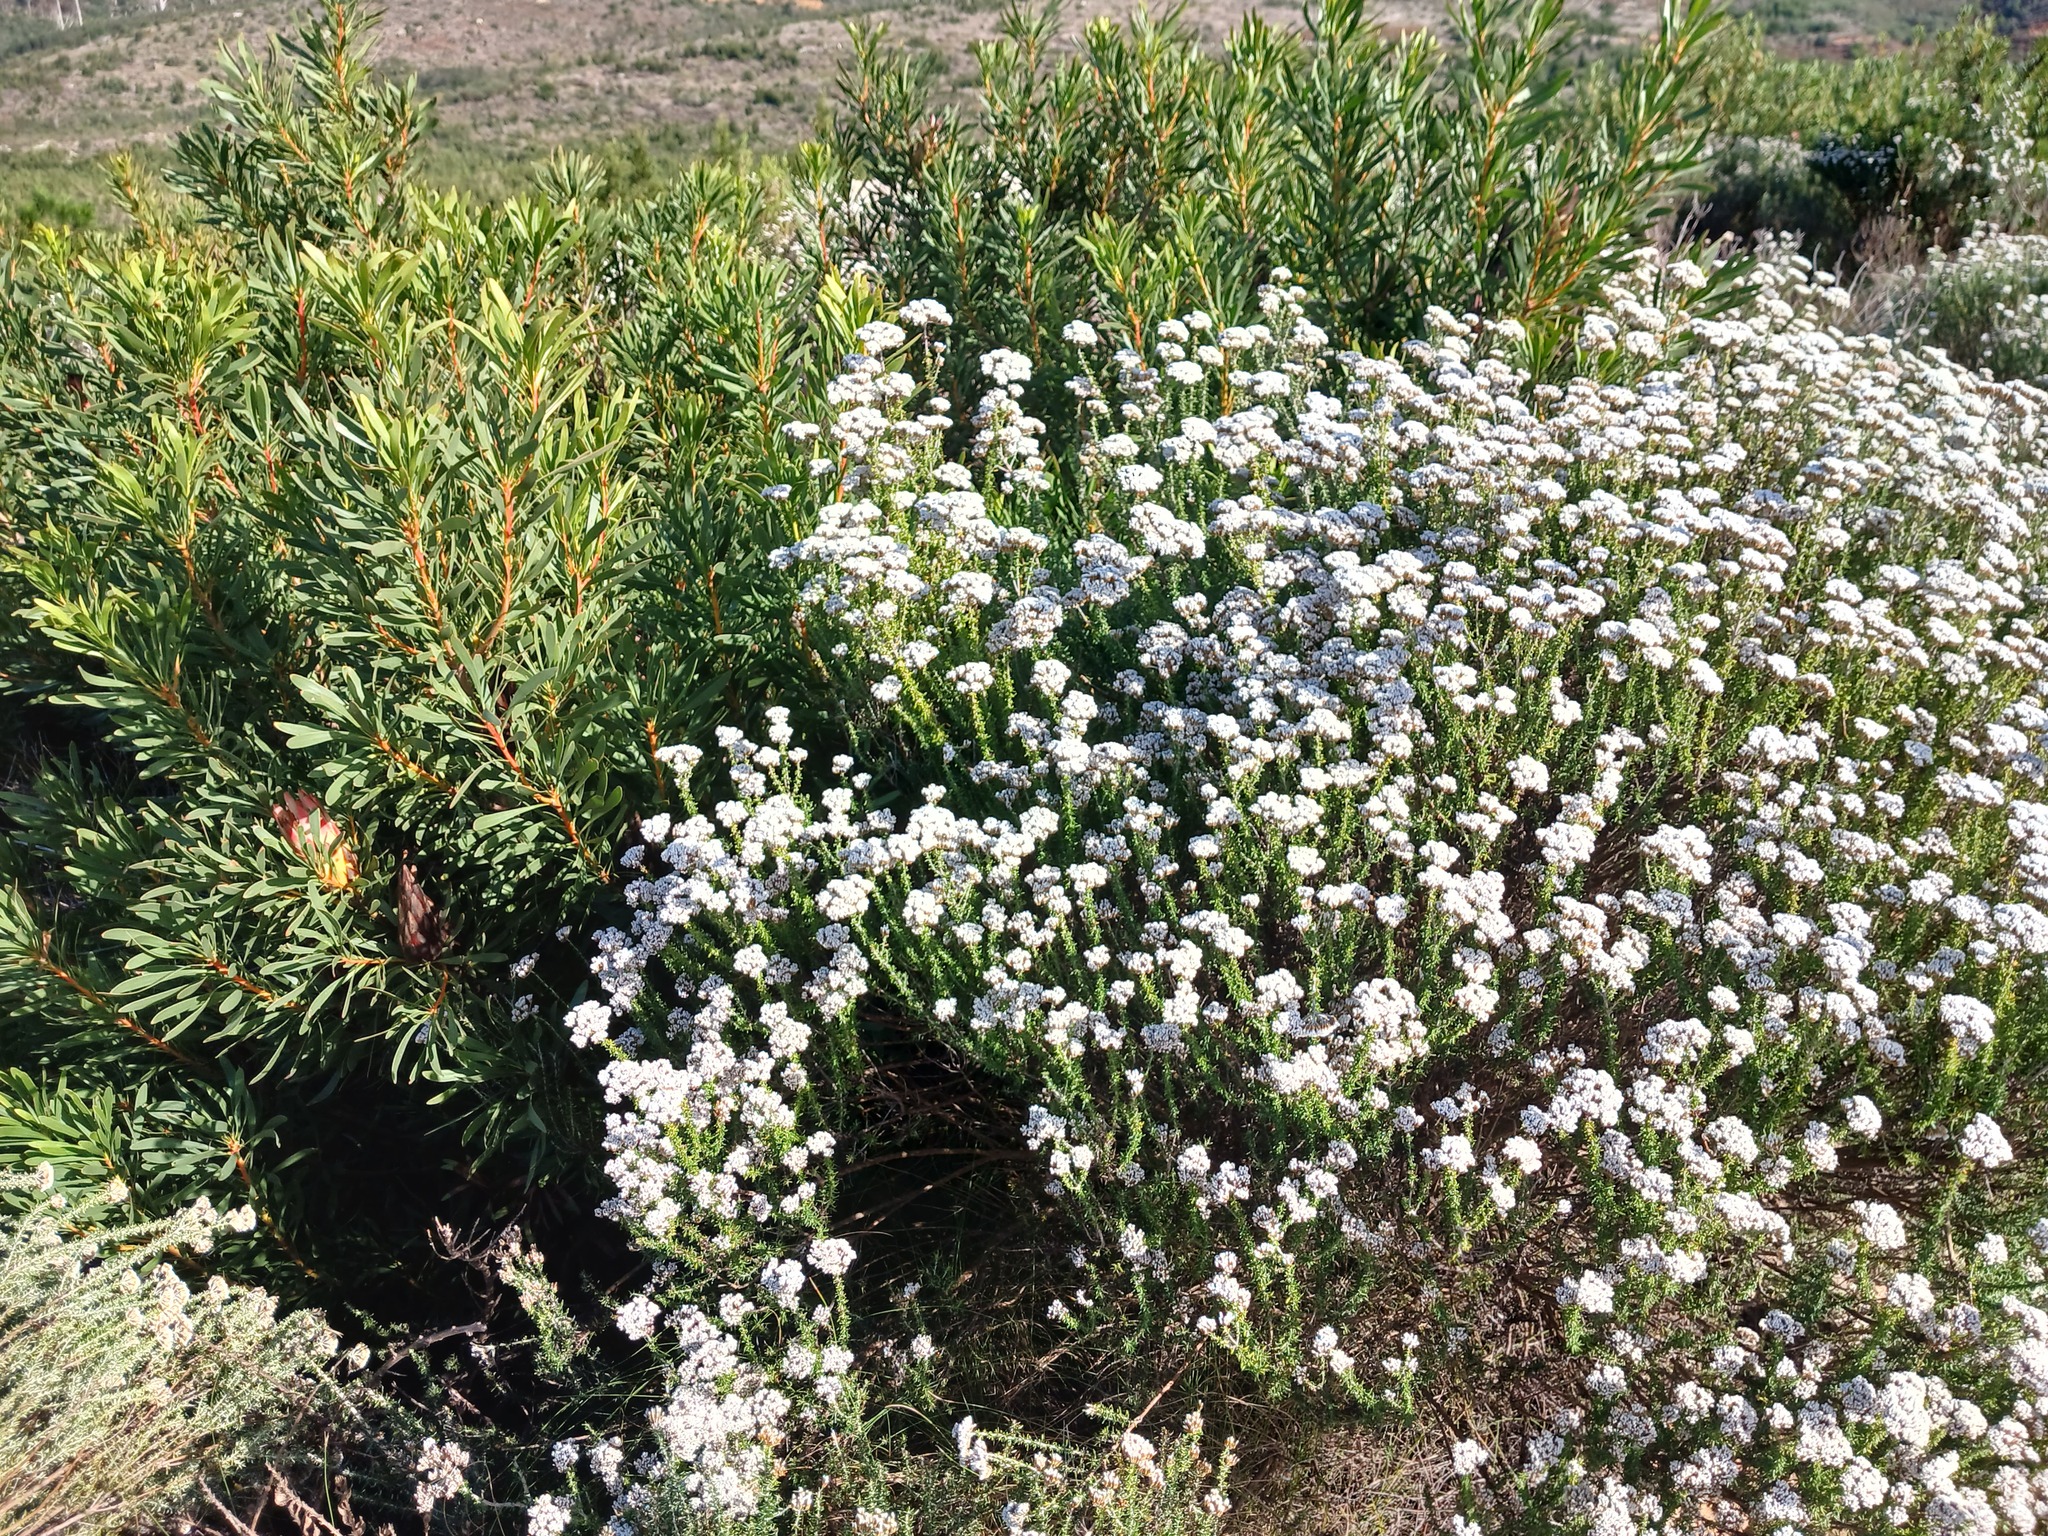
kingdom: Plantae
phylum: Tracheophyta
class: Magnoliopsida
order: Asterales
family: Asteraceae
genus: Metalasia
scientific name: Metalasia densa
